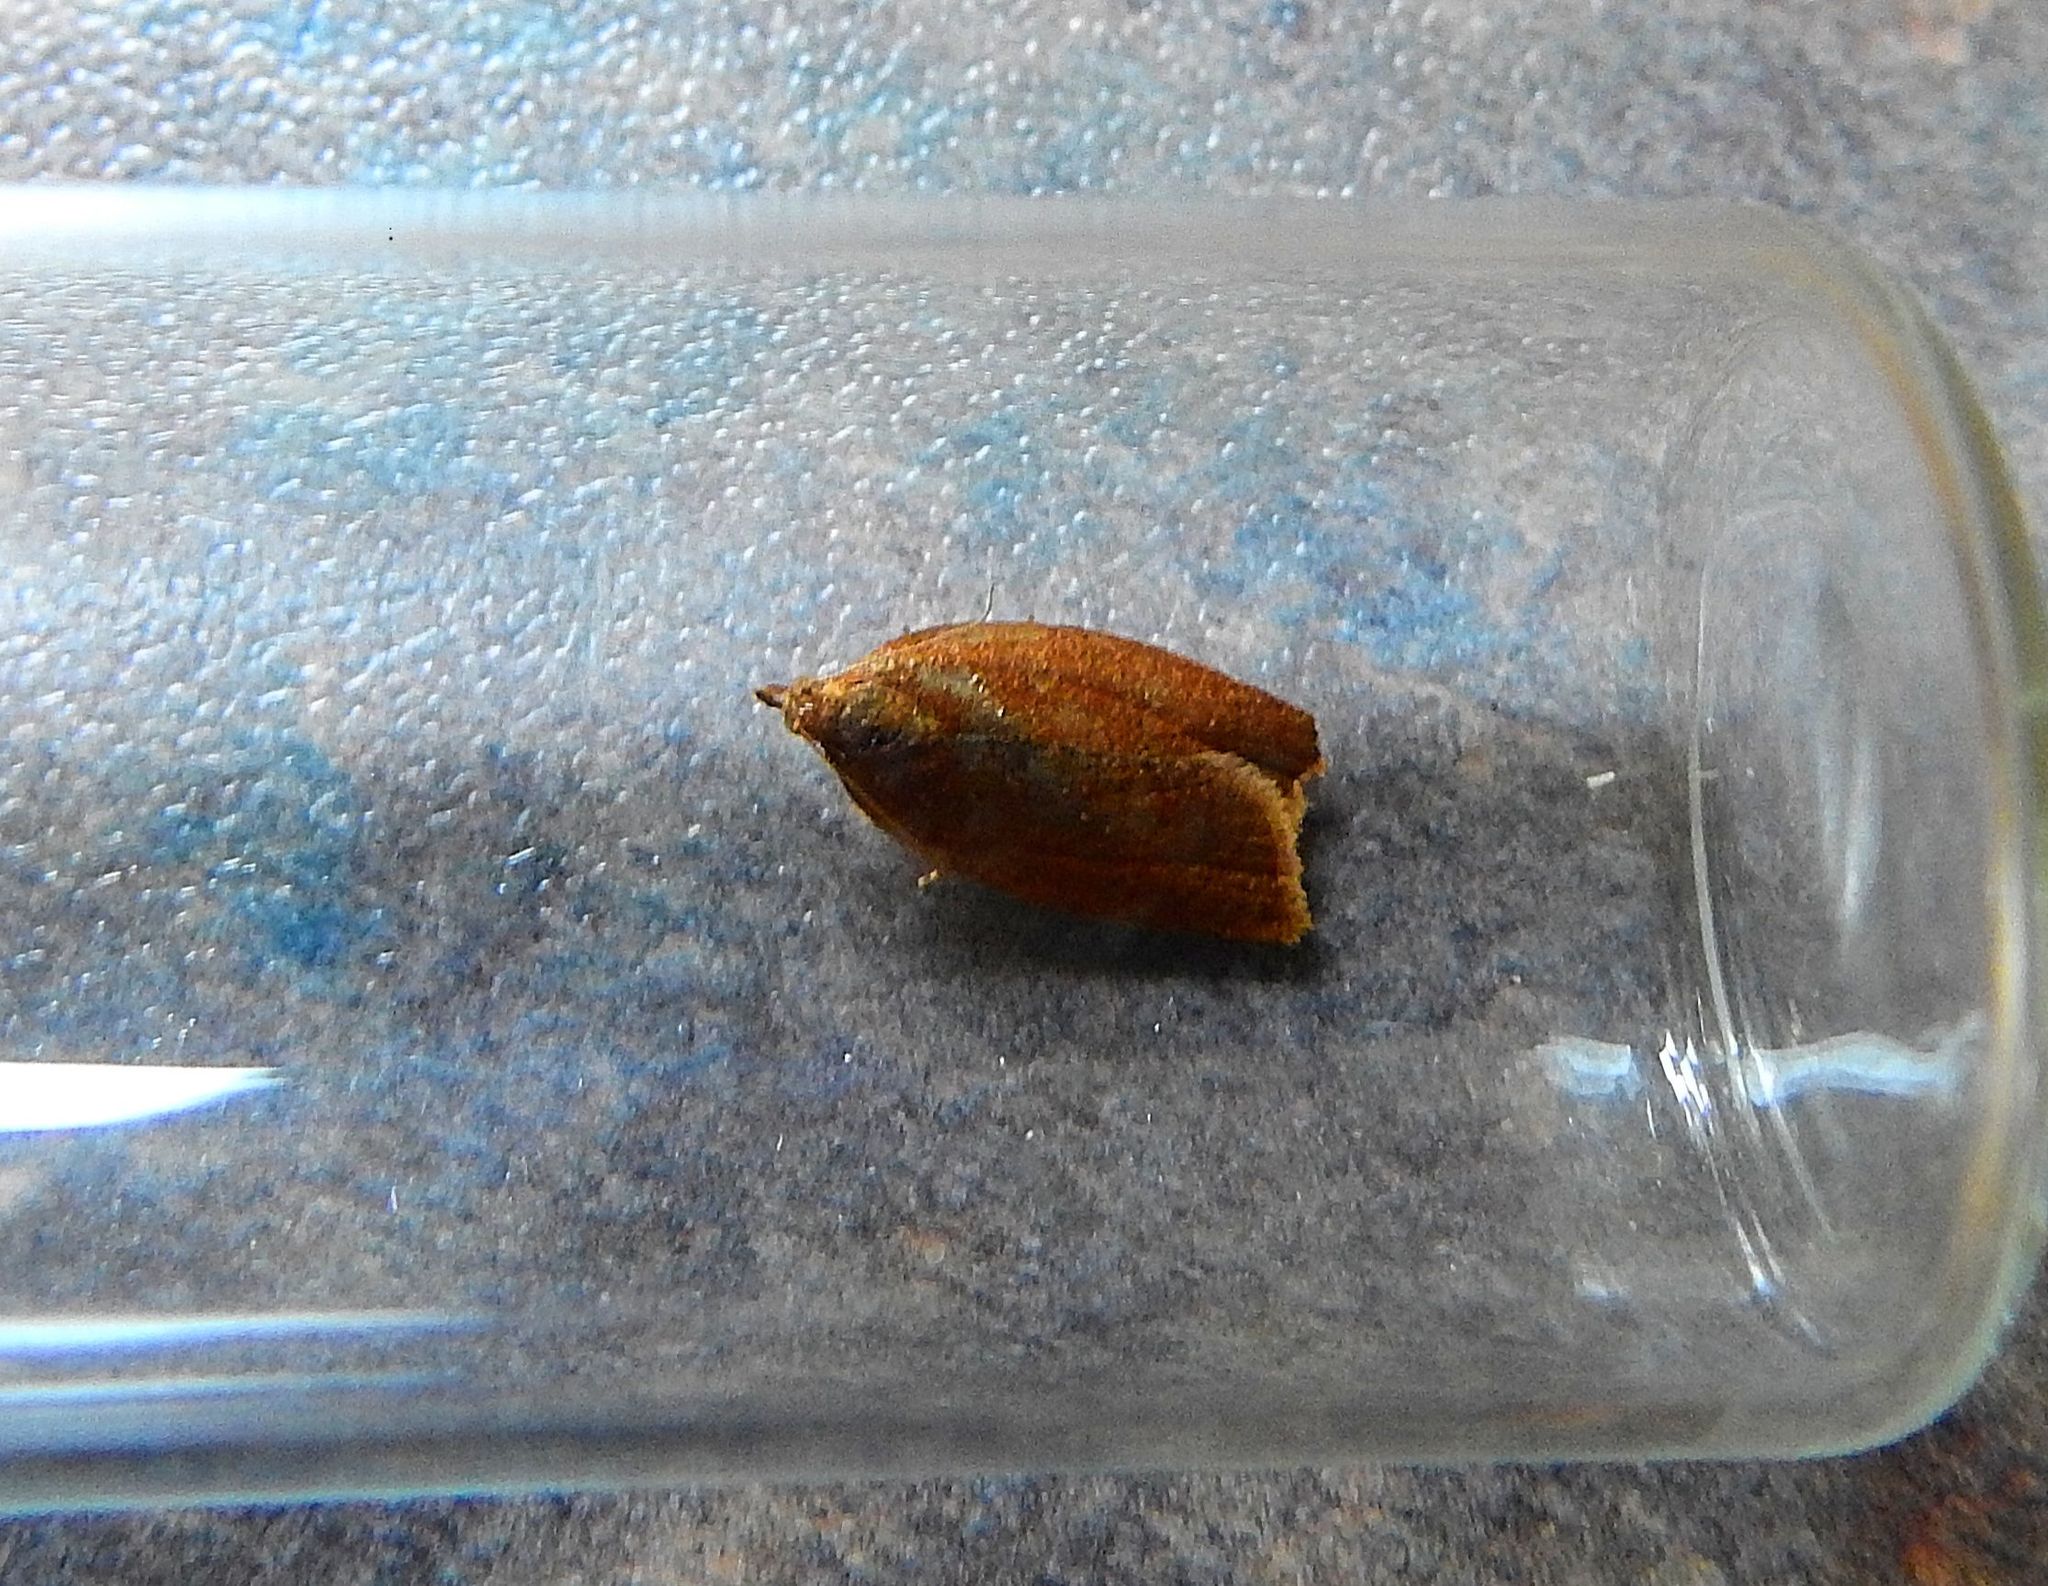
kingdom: Animalia
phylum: Arthropoda
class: Insecta
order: Lepidoptera
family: Tortricidae
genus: Clepsis
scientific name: Clepsis consimilana
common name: Privet tortrix
